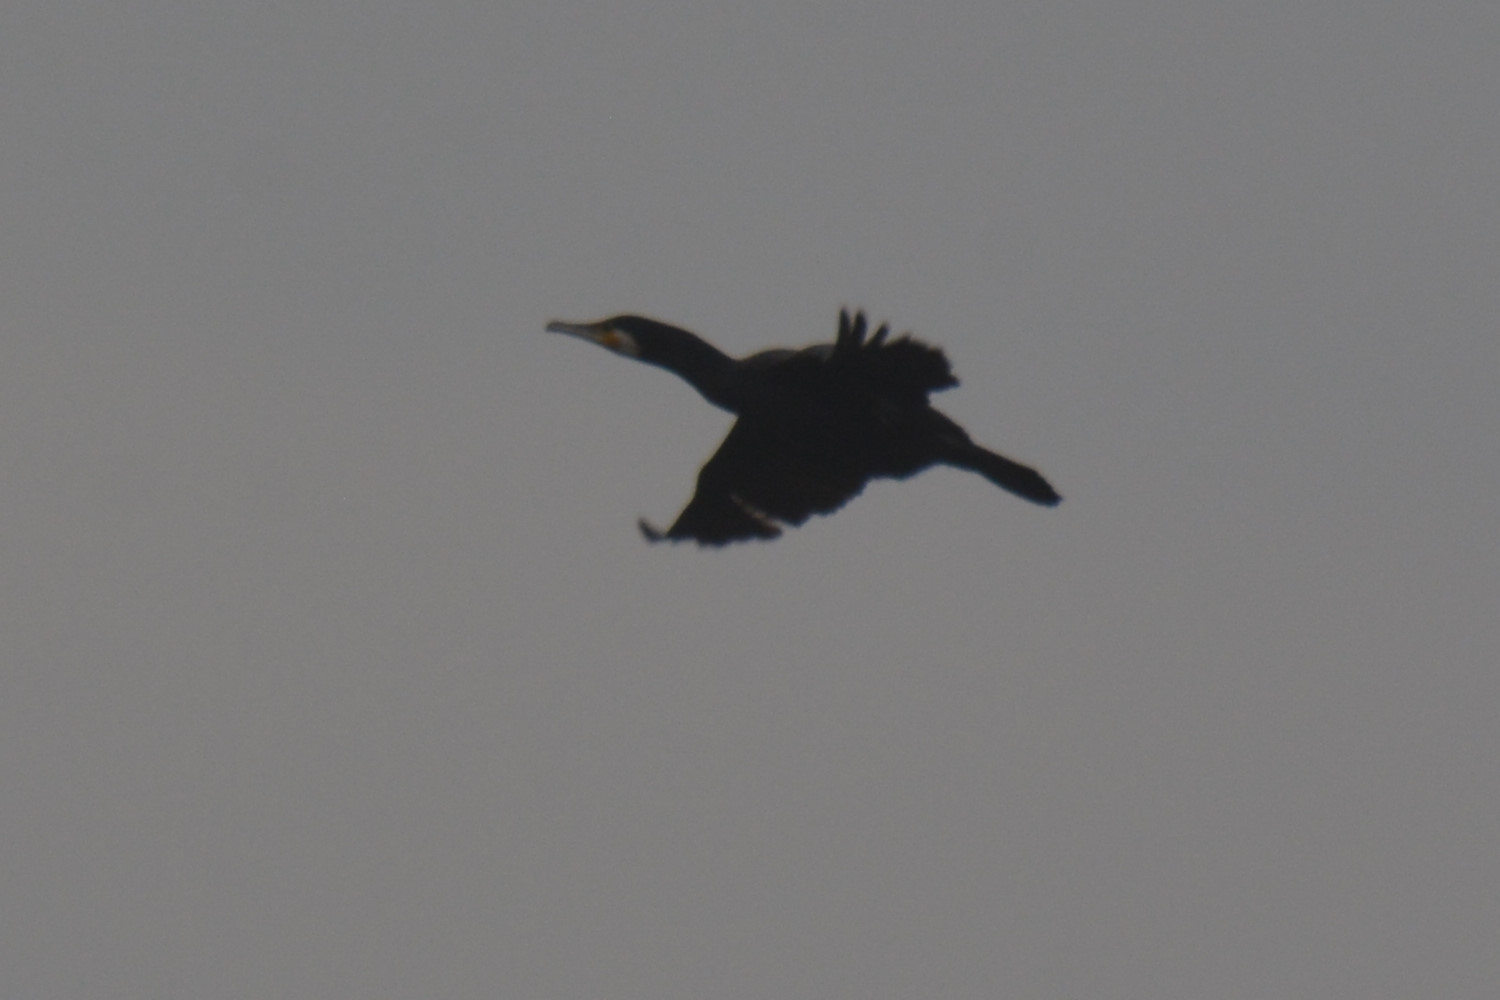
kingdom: Animalia
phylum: Chordata
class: Aves
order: Suliformes
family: Phalacrocoracidae
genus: Phalacrocorax
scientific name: Phalacrocorax carbo
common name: Great cormorant
